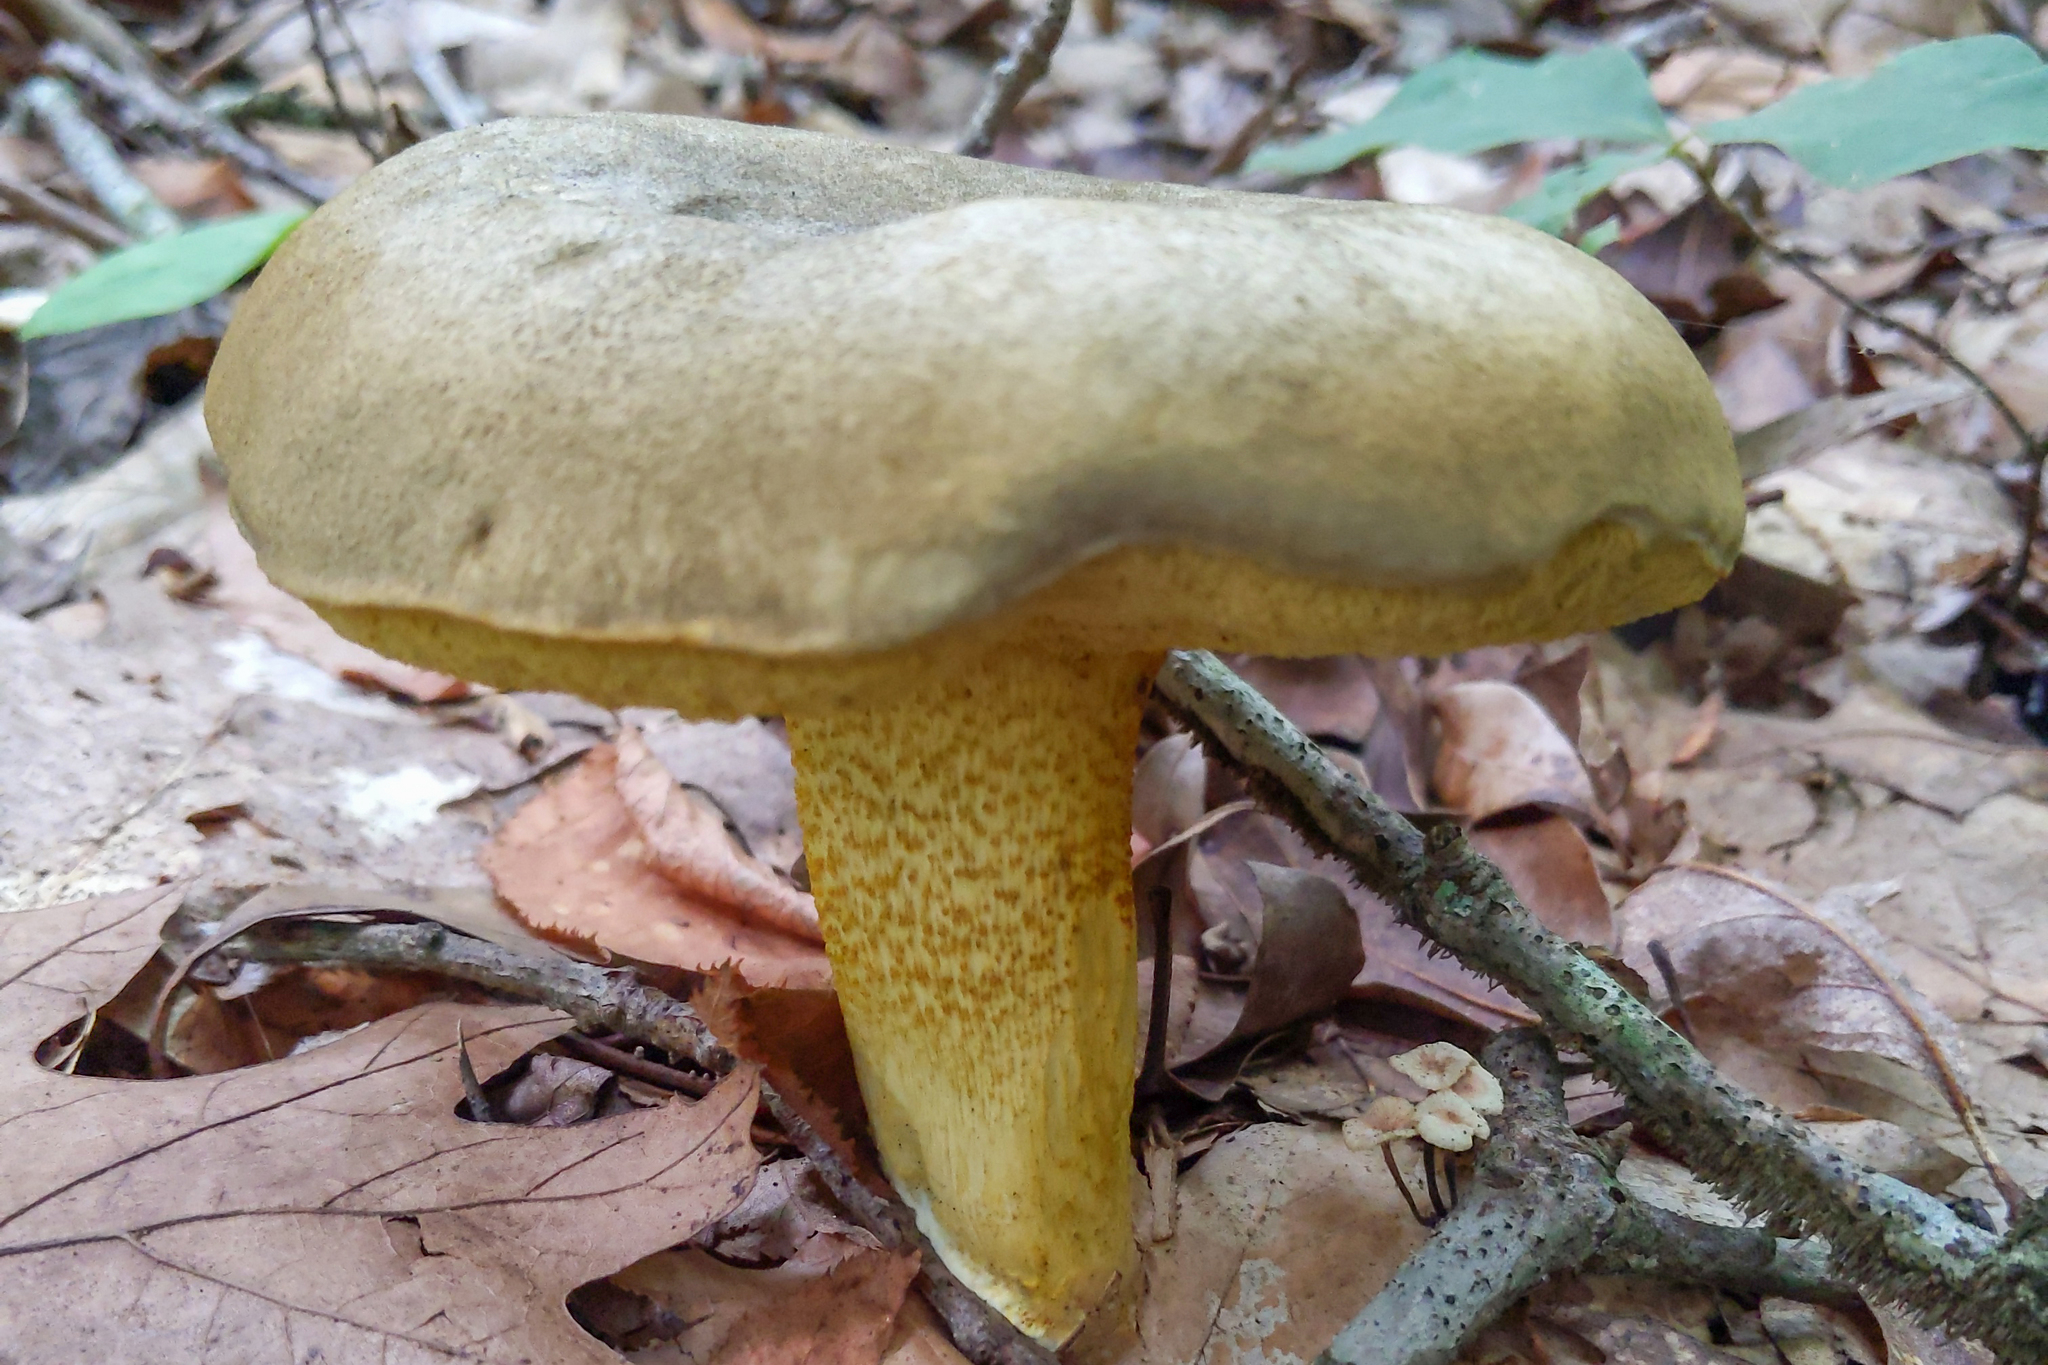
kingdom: Fungi
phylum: Basidiomycota
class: Agaricomycetes
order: Boletales
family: Boletaceae
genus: Retiboletus
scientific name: Retiboletus ornatipes
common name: Ornate-stalked bolete
